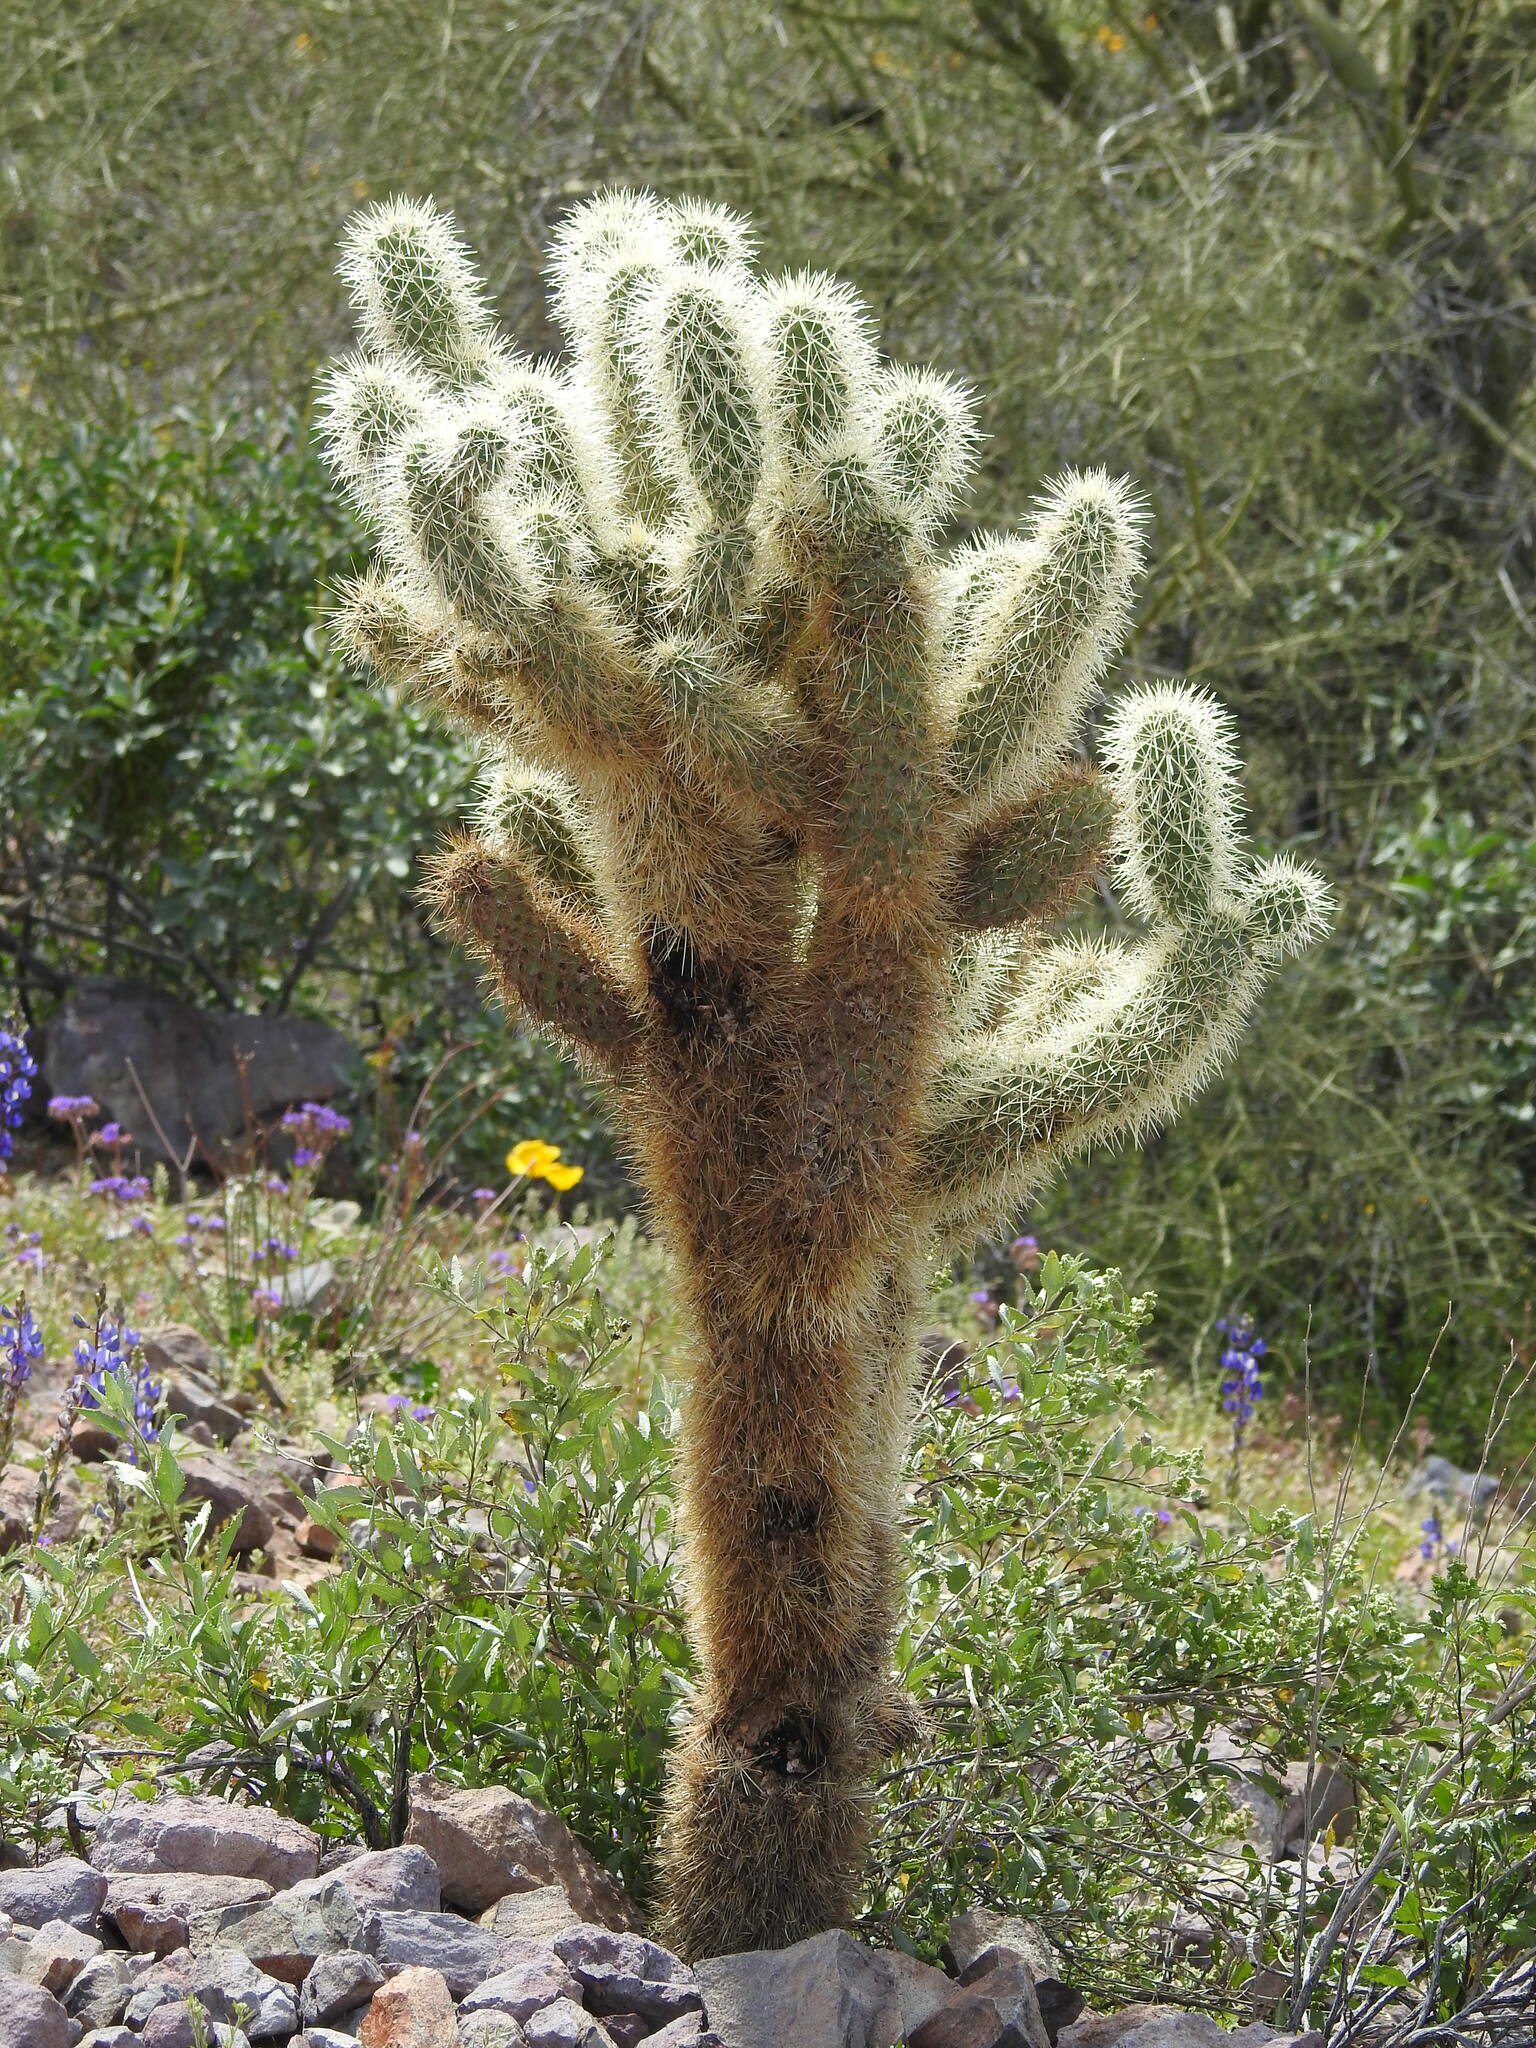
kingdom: Plantae
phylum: Tracheophyta
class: Magnoliopsida
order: Caryophyllales
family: Cactaceae
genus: Cylindropuntia
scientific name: Cylindropuntia fosbergii
